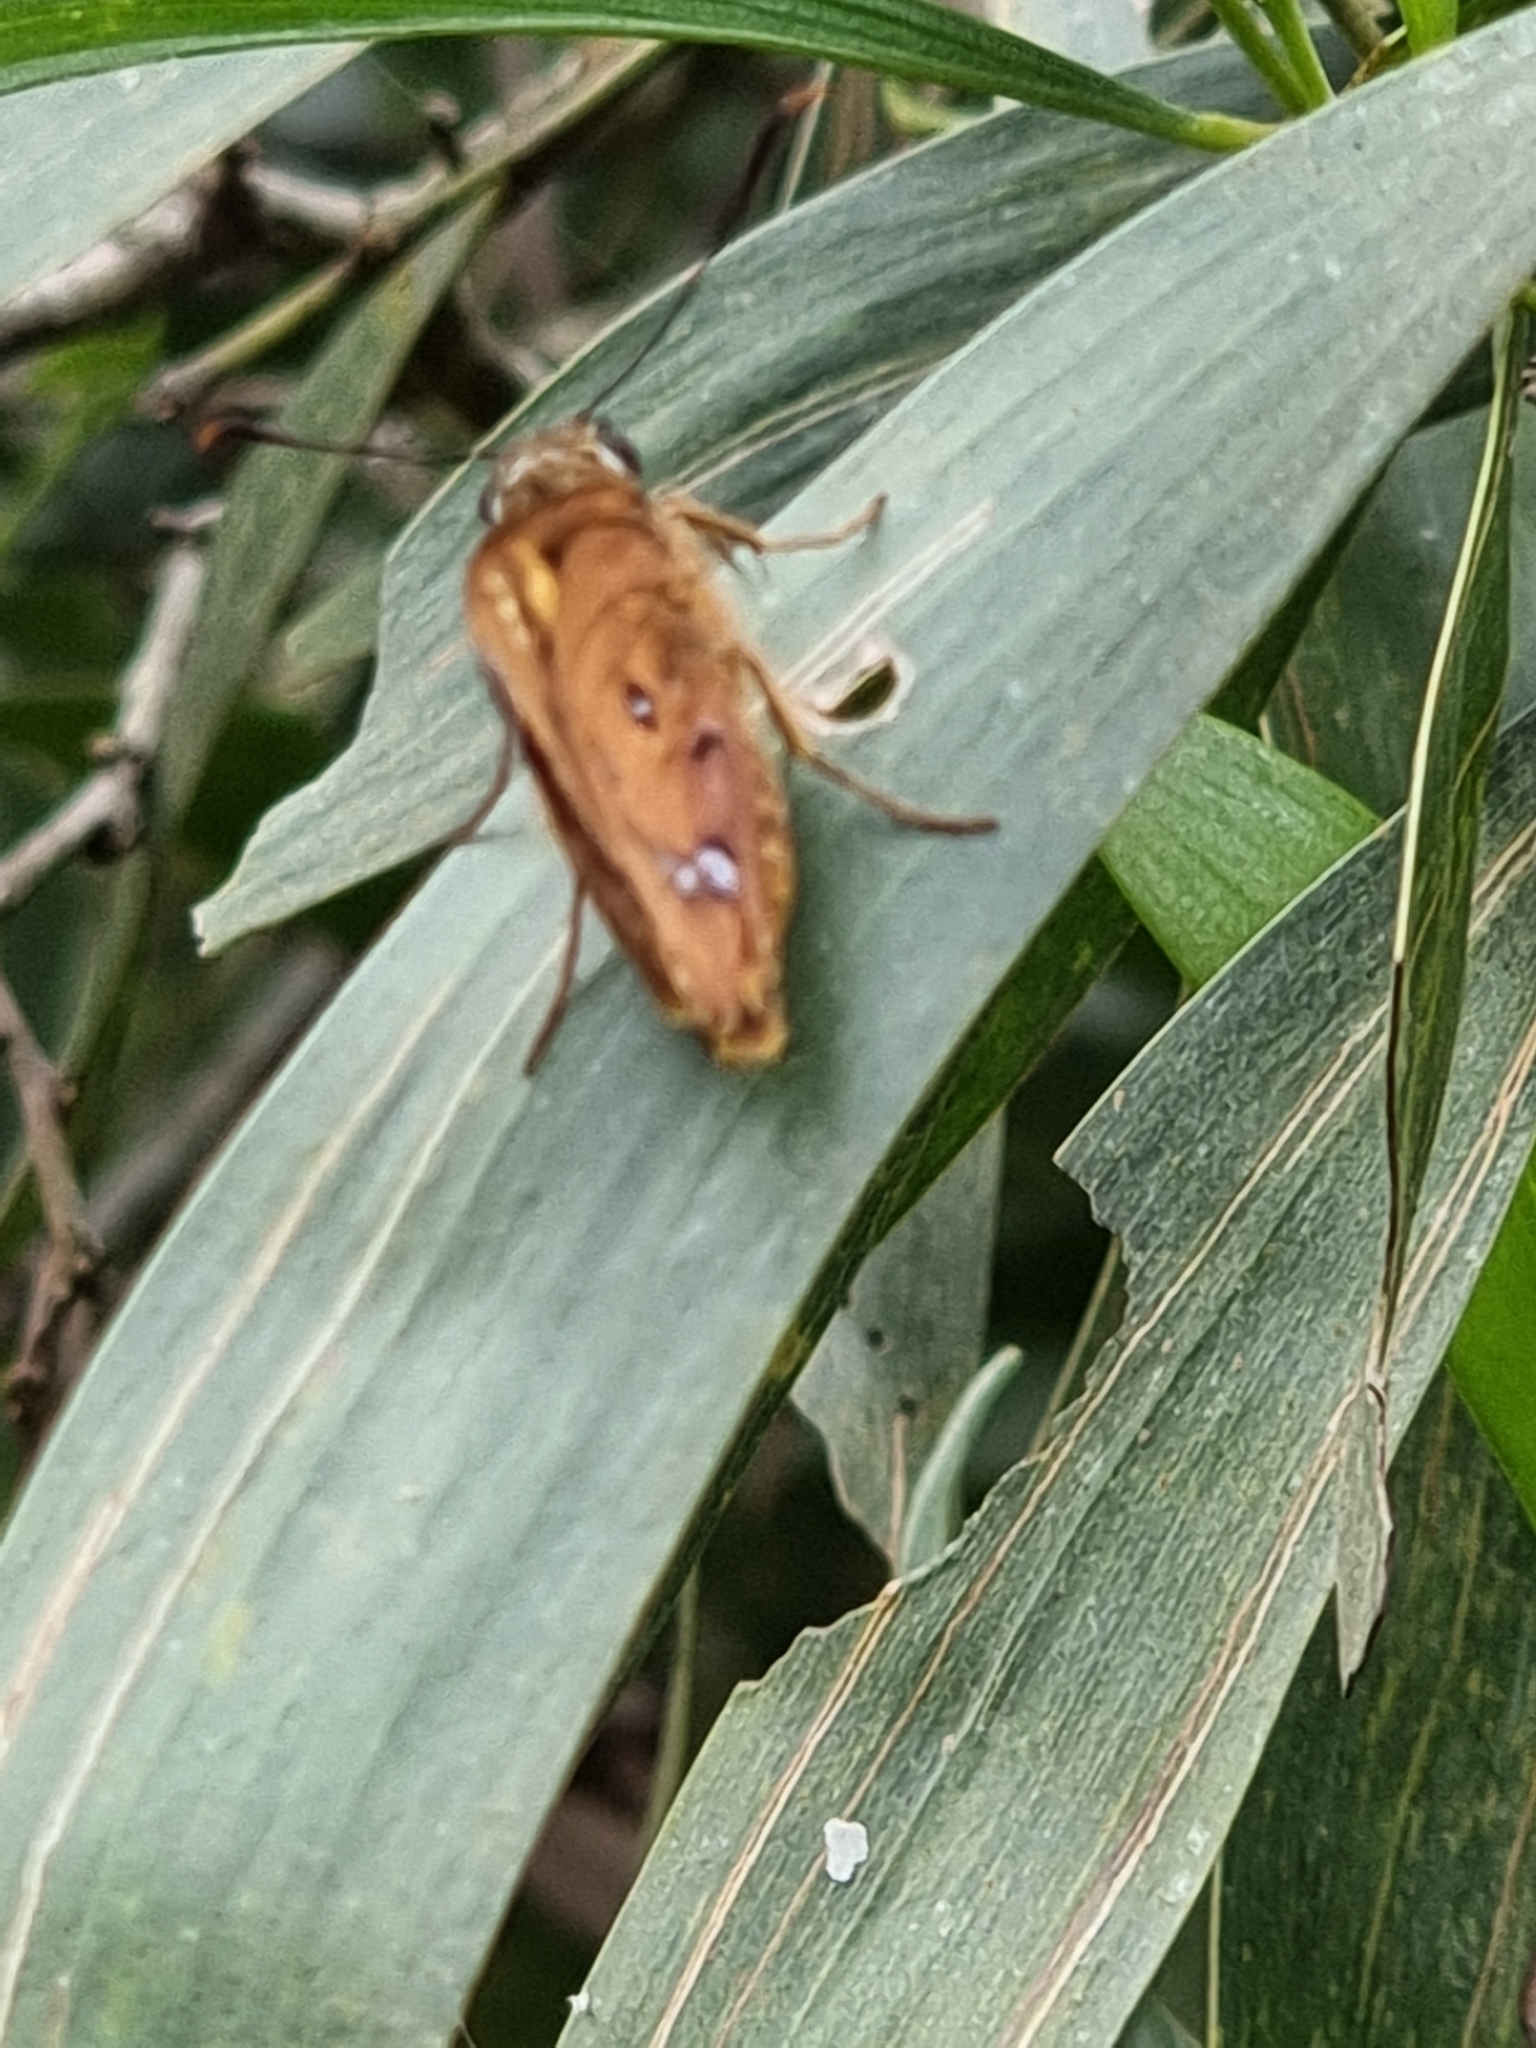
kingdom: Animalia
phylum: Arthropoda
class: Insecta
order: Lepidoptera
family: Hesperiidae
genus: Trapezites
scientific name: Trapezites symmomus
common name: Splendid ochre
